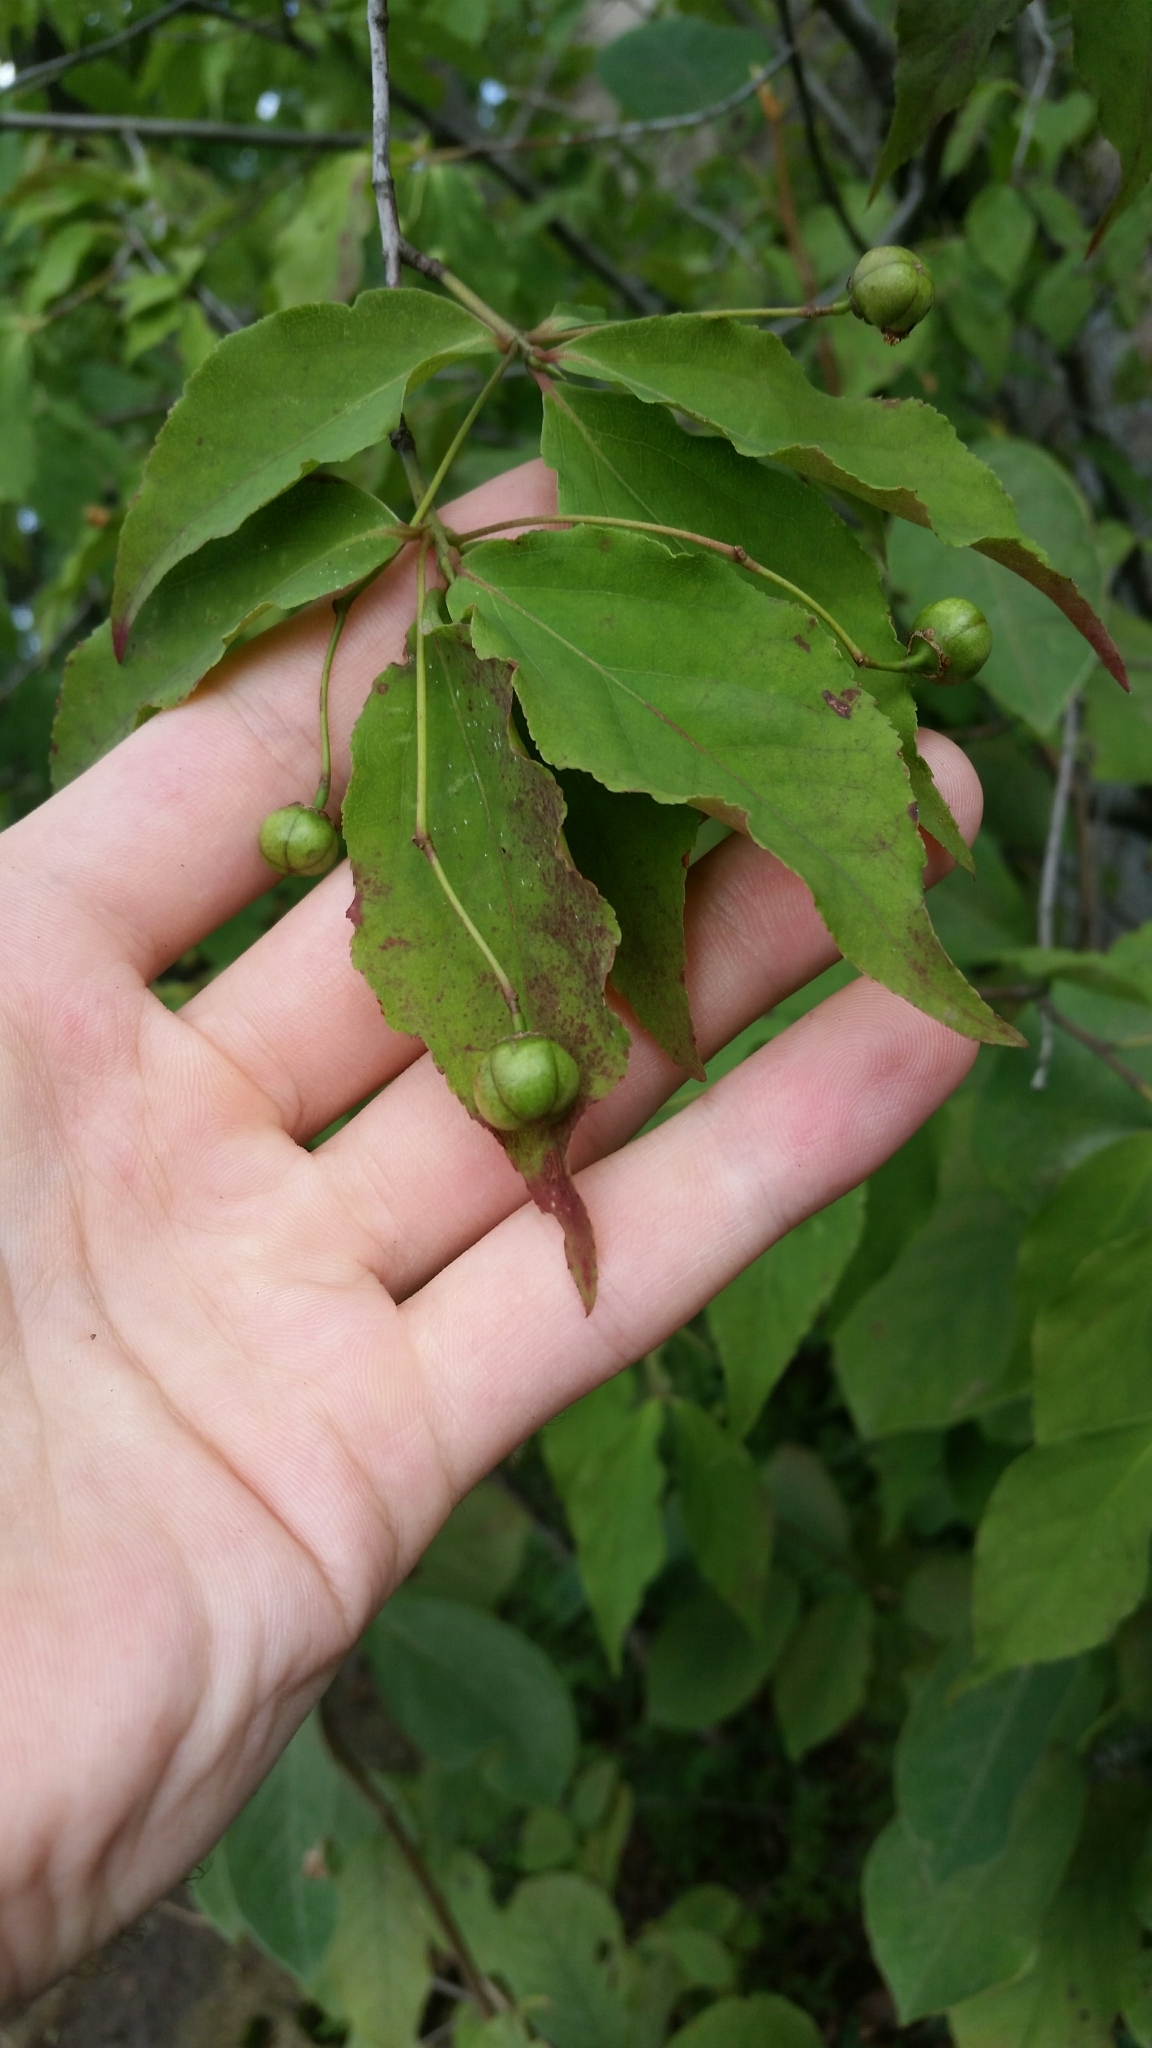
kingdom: Plantae
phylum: Tracheophyta
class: Magnoliopsida
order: Celastrales
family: Celastraceae
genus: Euonymus
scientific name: Euonymus oxyphyllus
